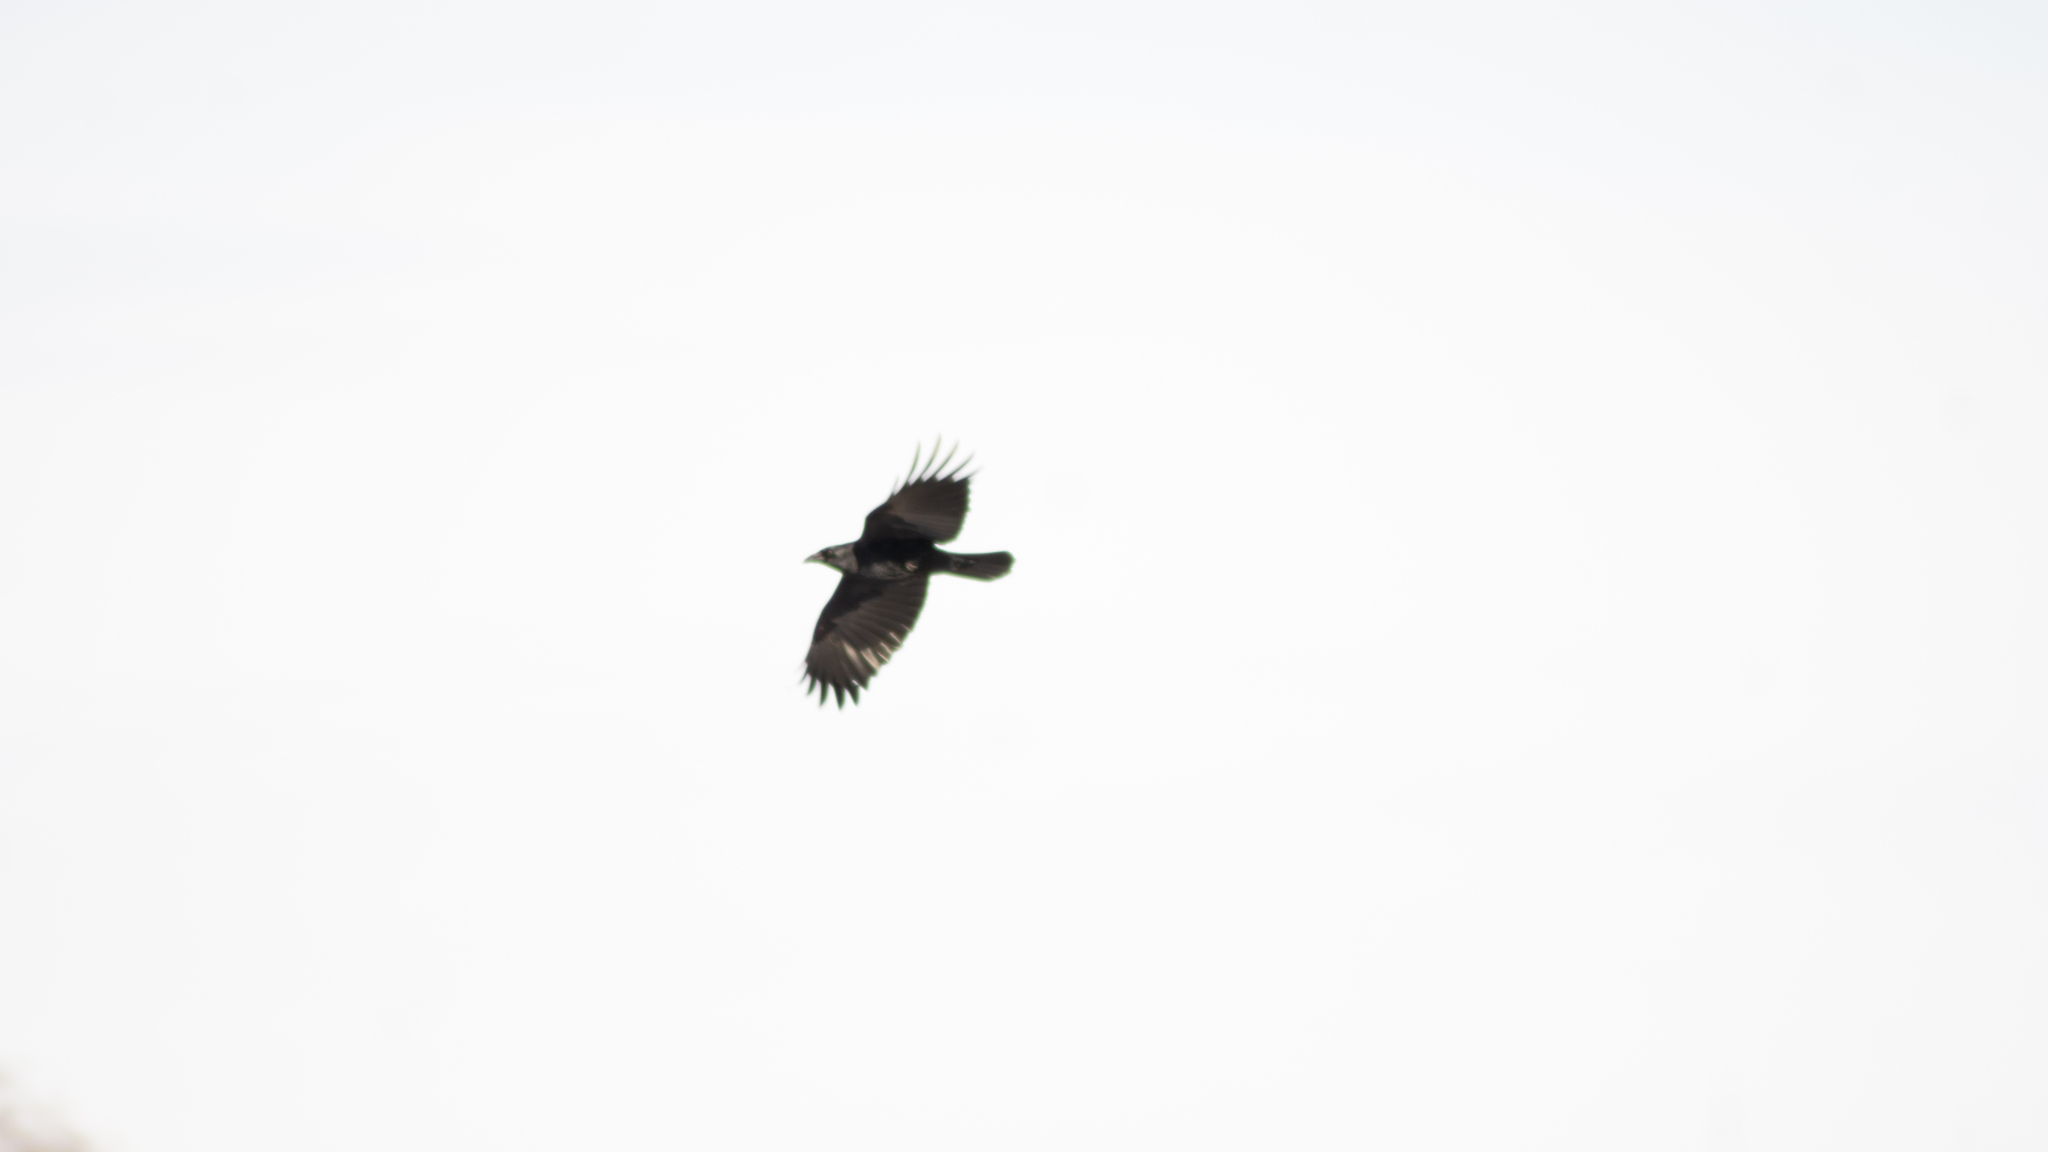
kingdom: Animalia
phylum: Chordata
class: Aves
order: Passeriformes
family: Corvidae
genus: Corvus
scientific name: Corvus brachyrhynchos
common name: American crow
